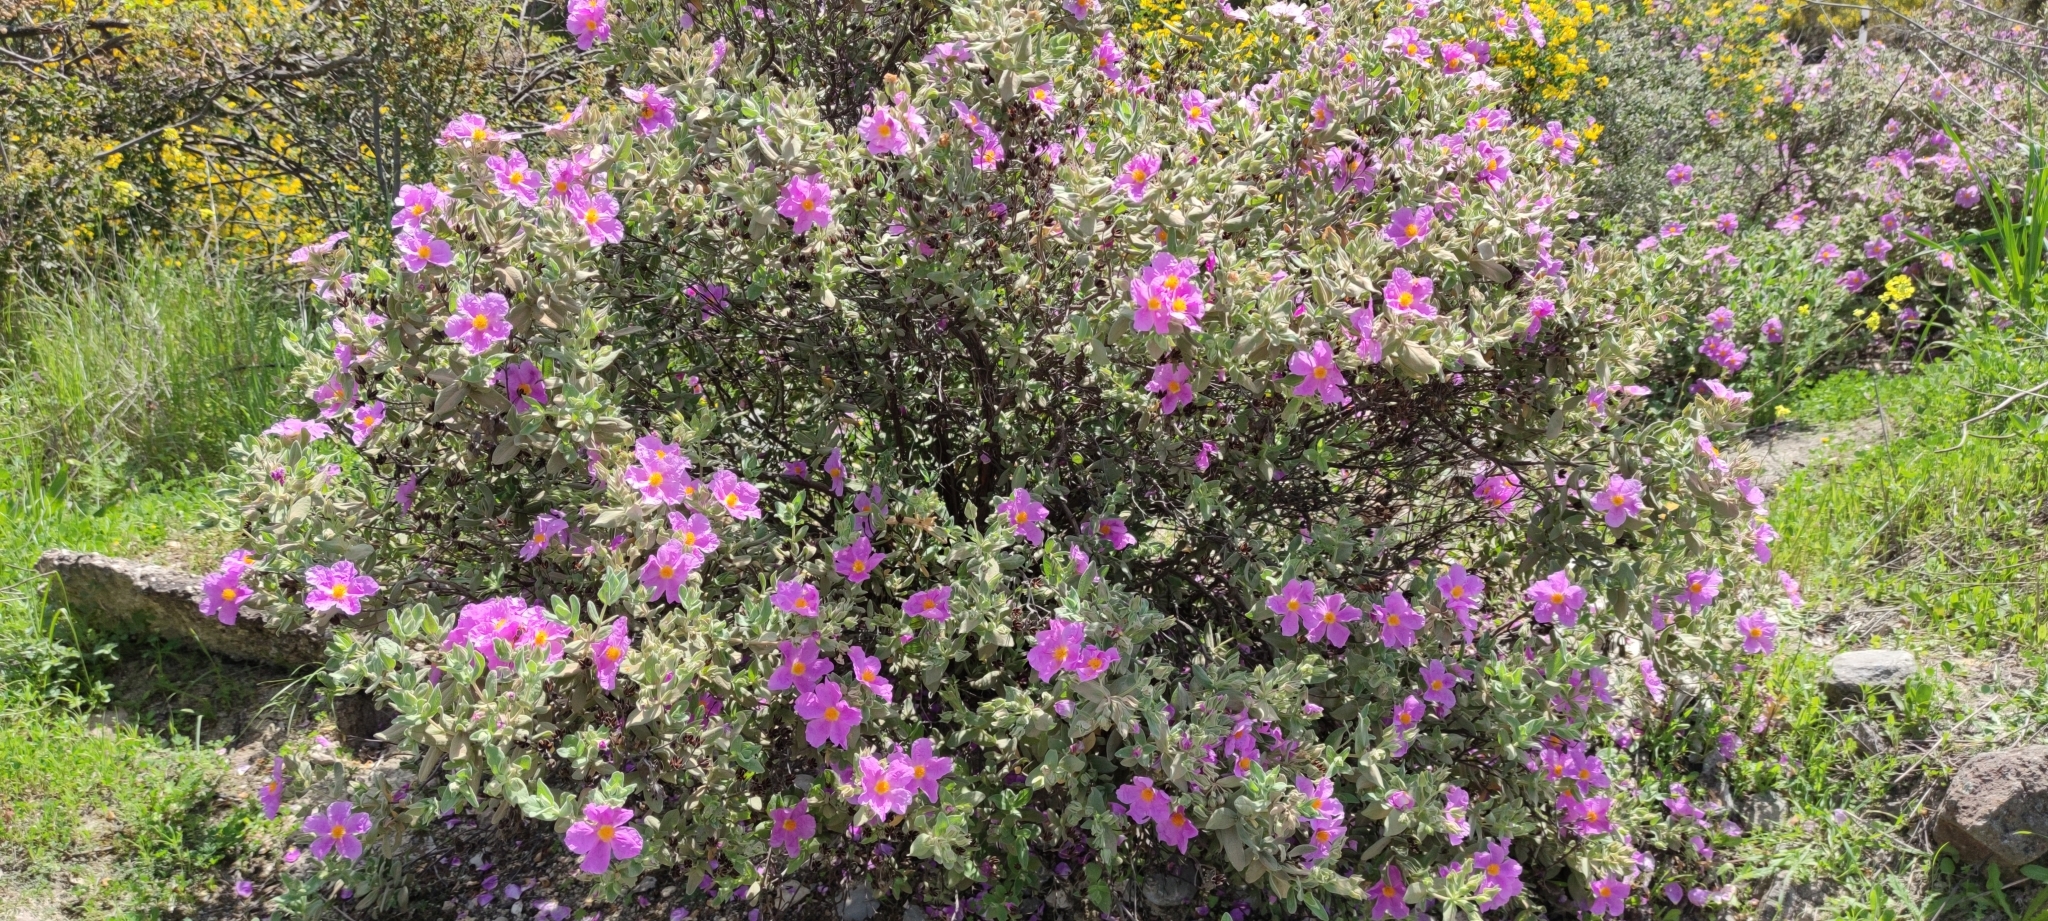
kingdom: Plantae
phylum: Tracheophyta
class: Magnoliopsida
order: Malvales
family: Cistaceae
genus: Cistus
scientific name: Cistus albidus
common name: White-leaf rock-rose
